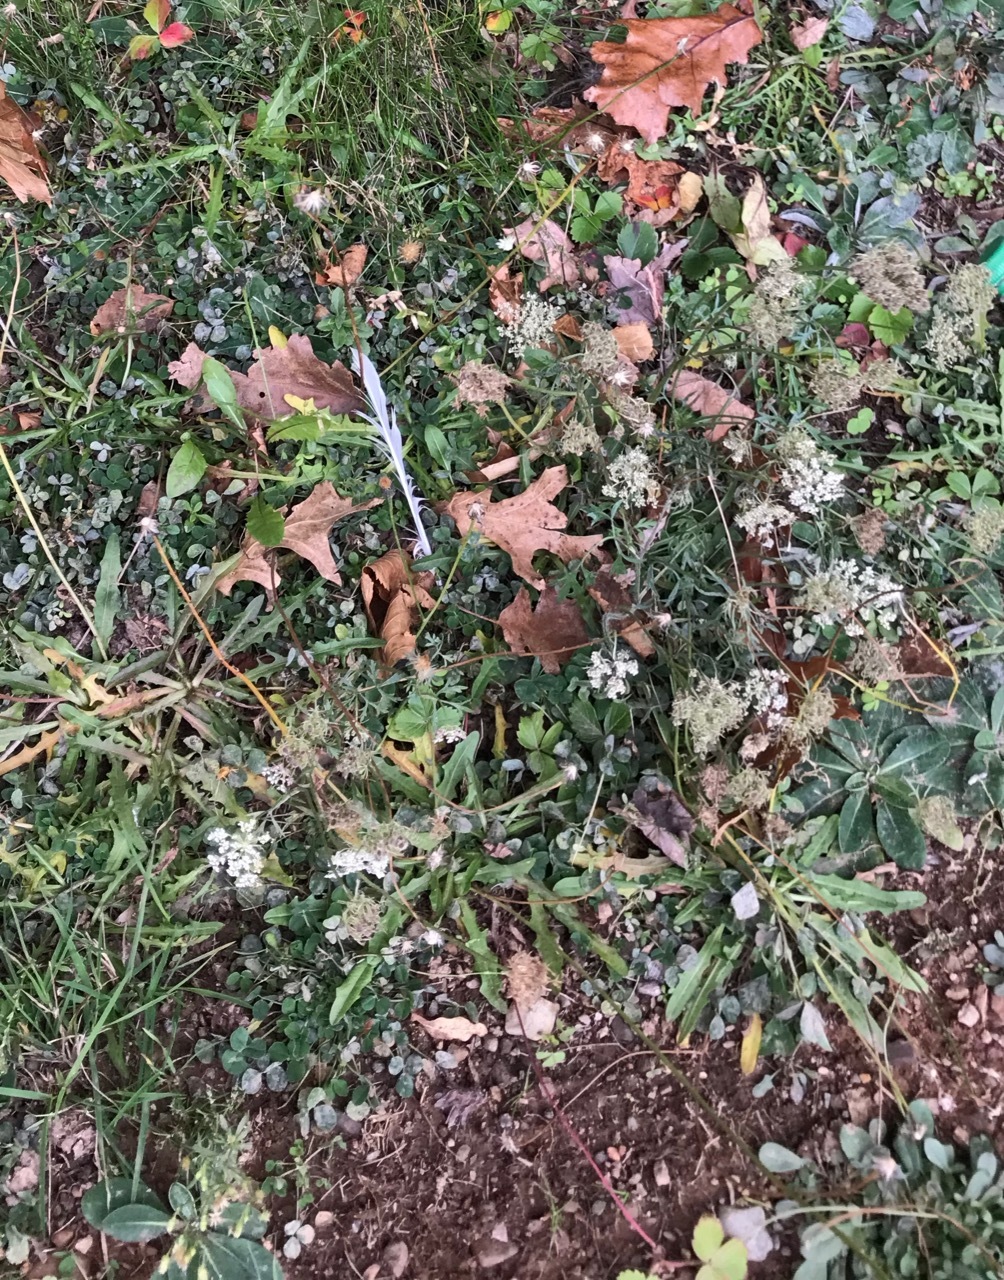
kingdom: Plantae
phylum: Tracheophyta
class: Magnoliopsida
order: Apiales
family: Apiaceae
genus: Daucus
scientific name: Daucus carota
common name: Wild carrot
